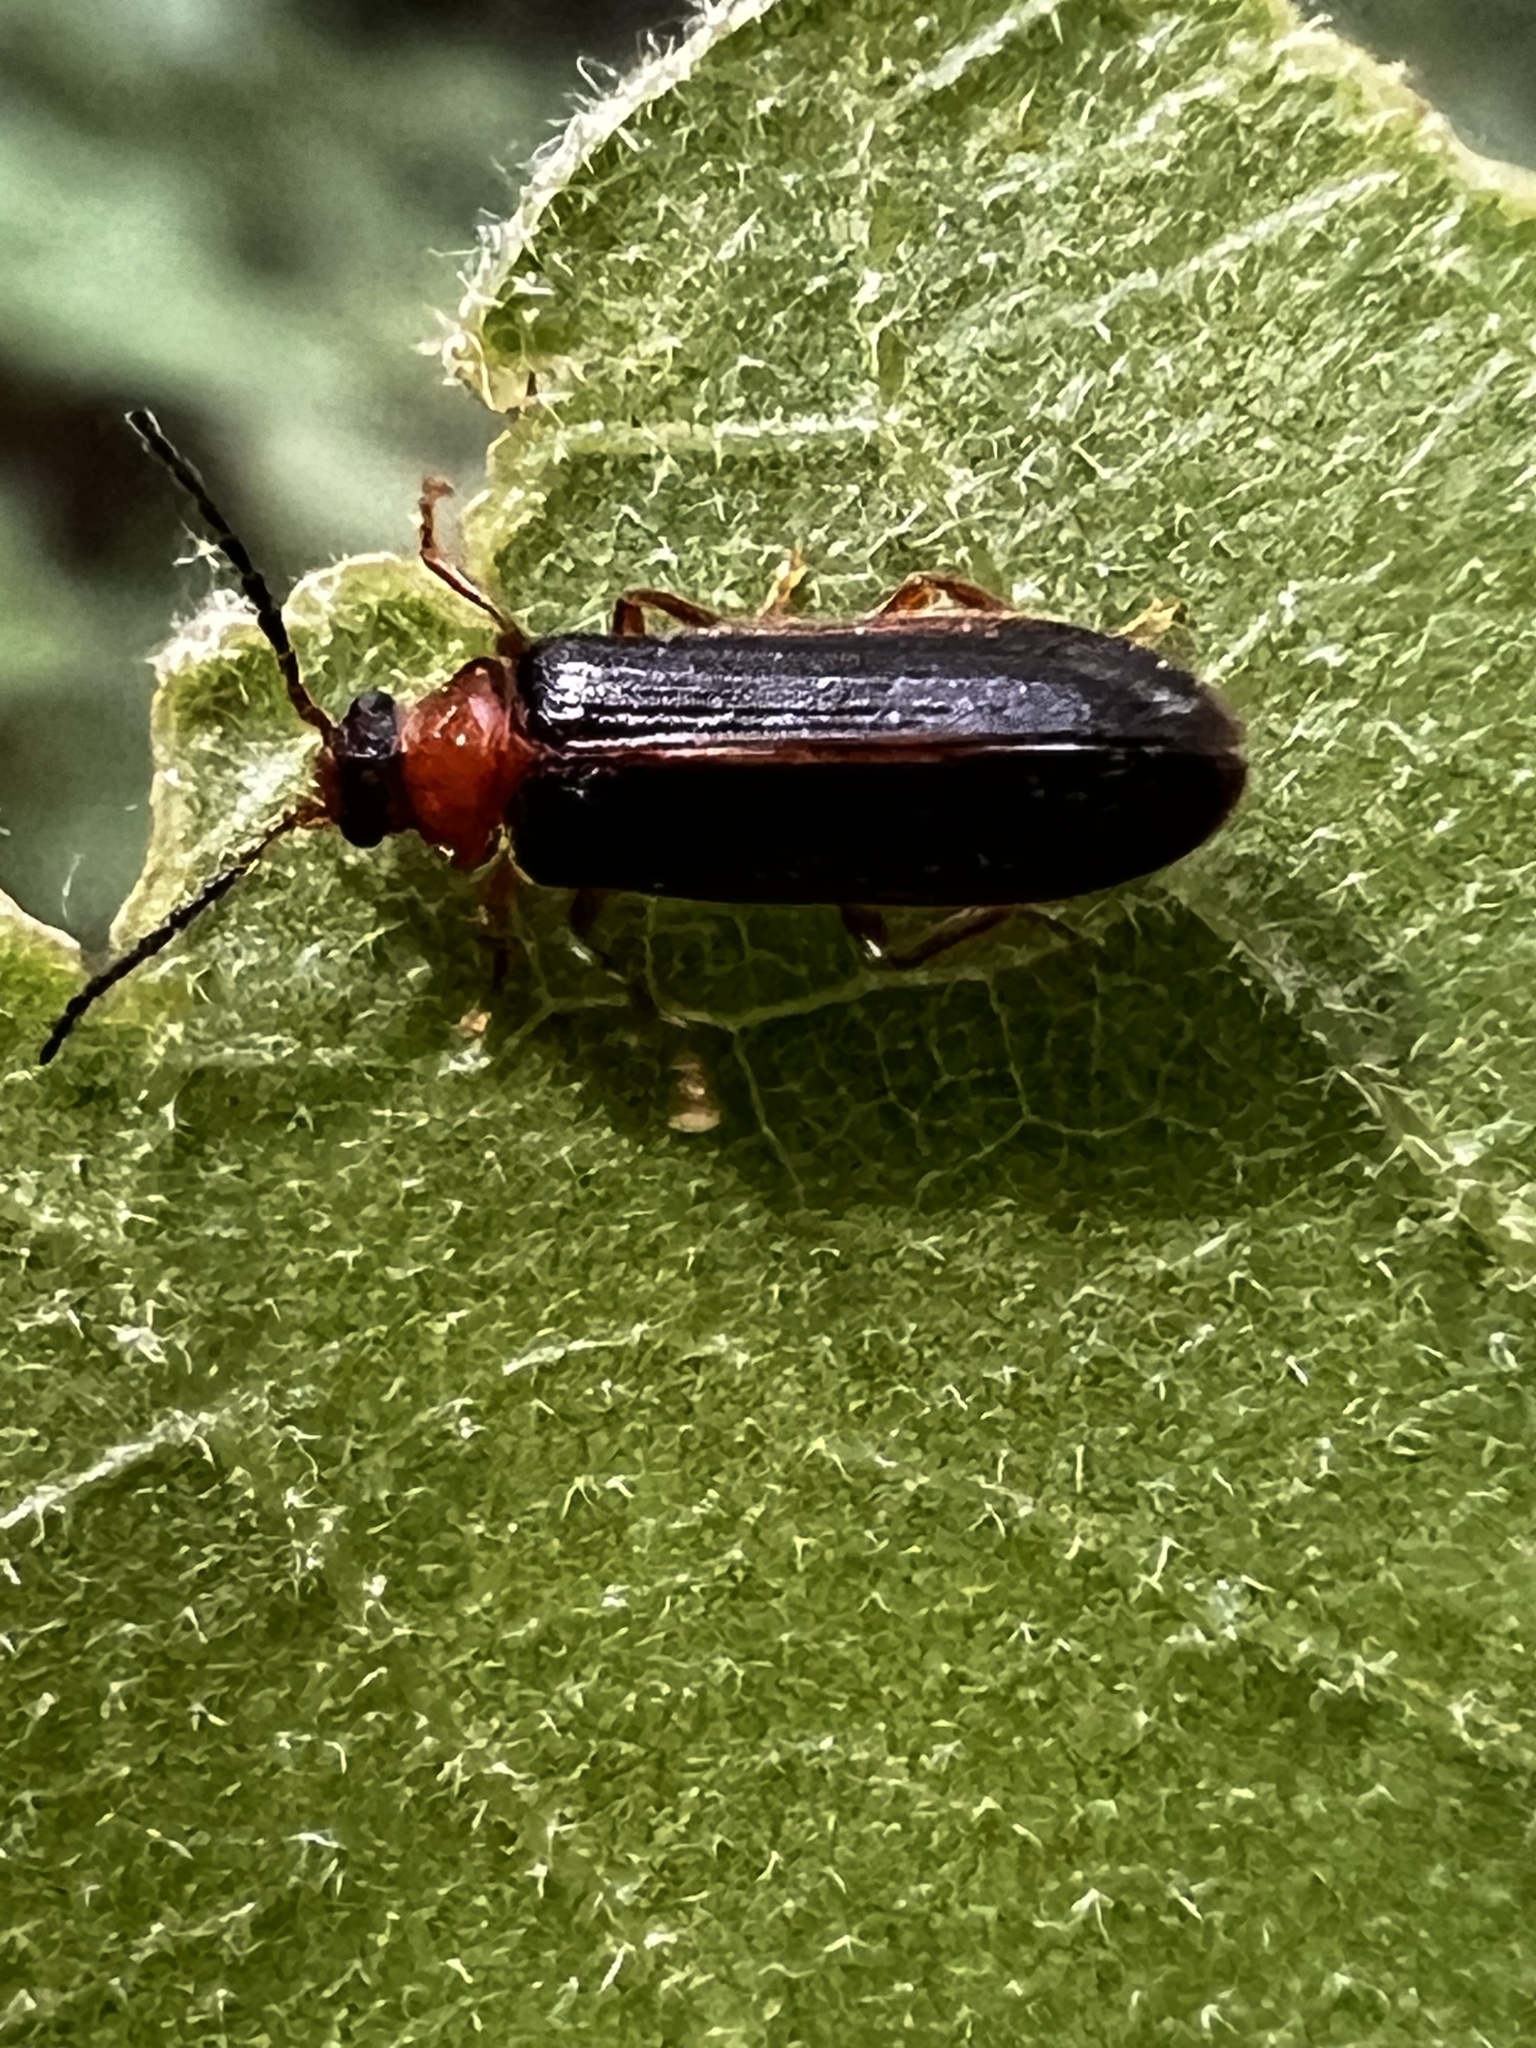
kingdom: Animalia
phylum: Arthropoda
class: Insecta
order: Coleoptera
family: Omethidae
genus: Omethes
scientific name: Omethes marginatus
